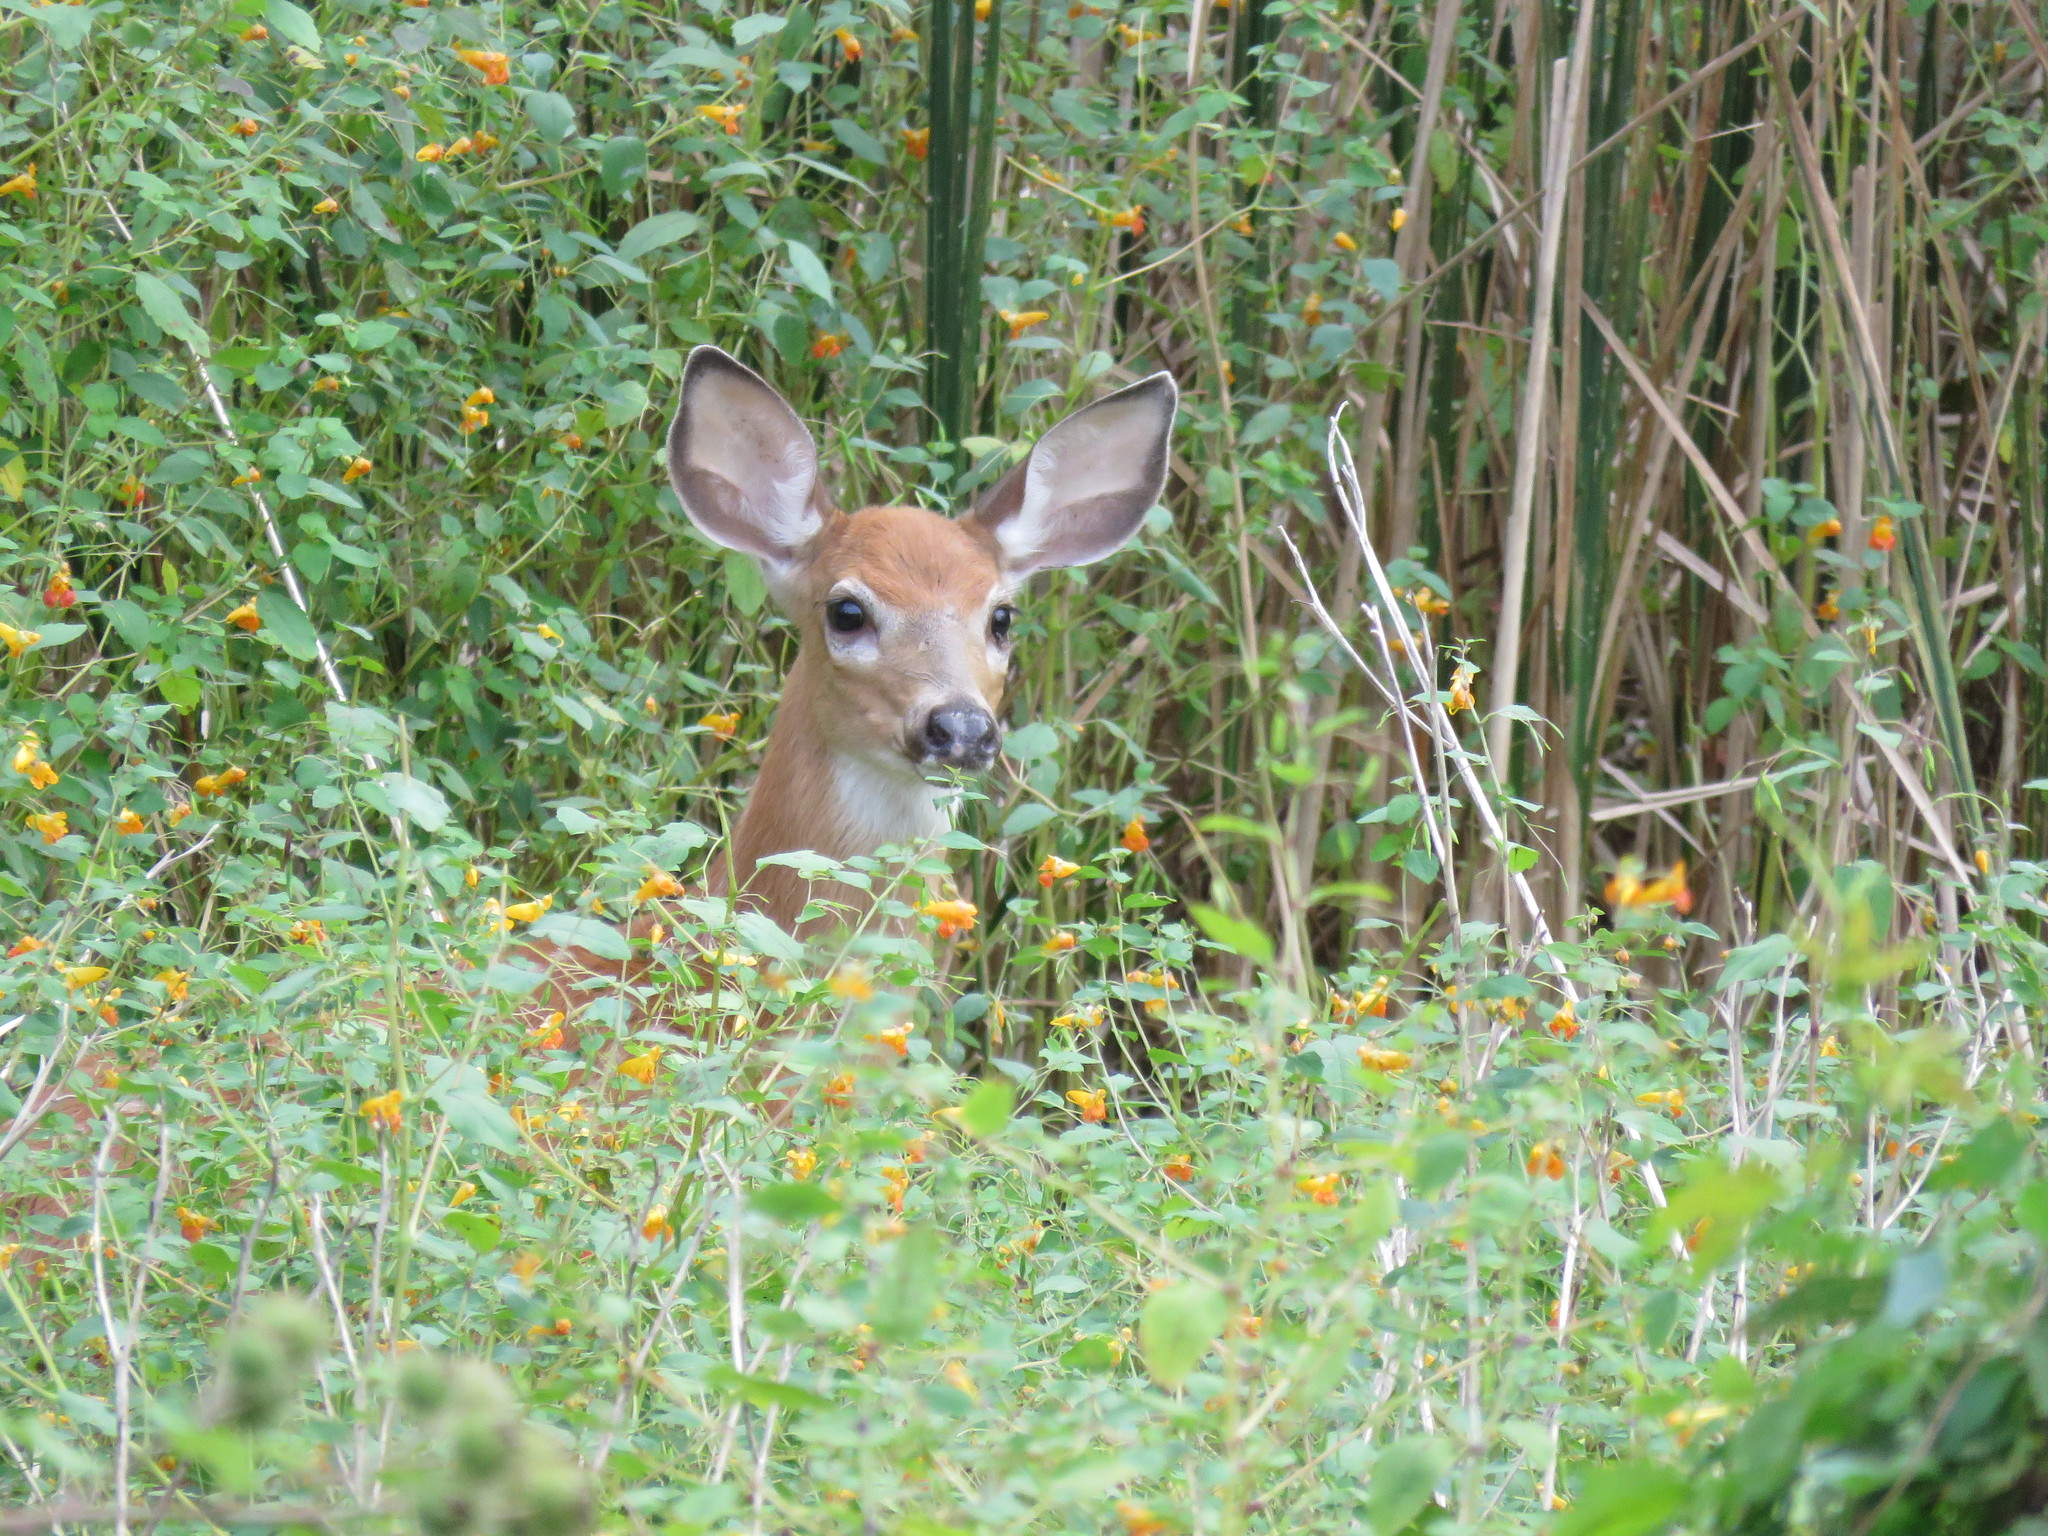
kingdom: Animalia
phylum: Chordata
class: Mammalia
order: Artiodactyla
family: Cervidae
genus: Odocoileus
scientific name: Odocoileus virginianus
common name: White-tailed deer
